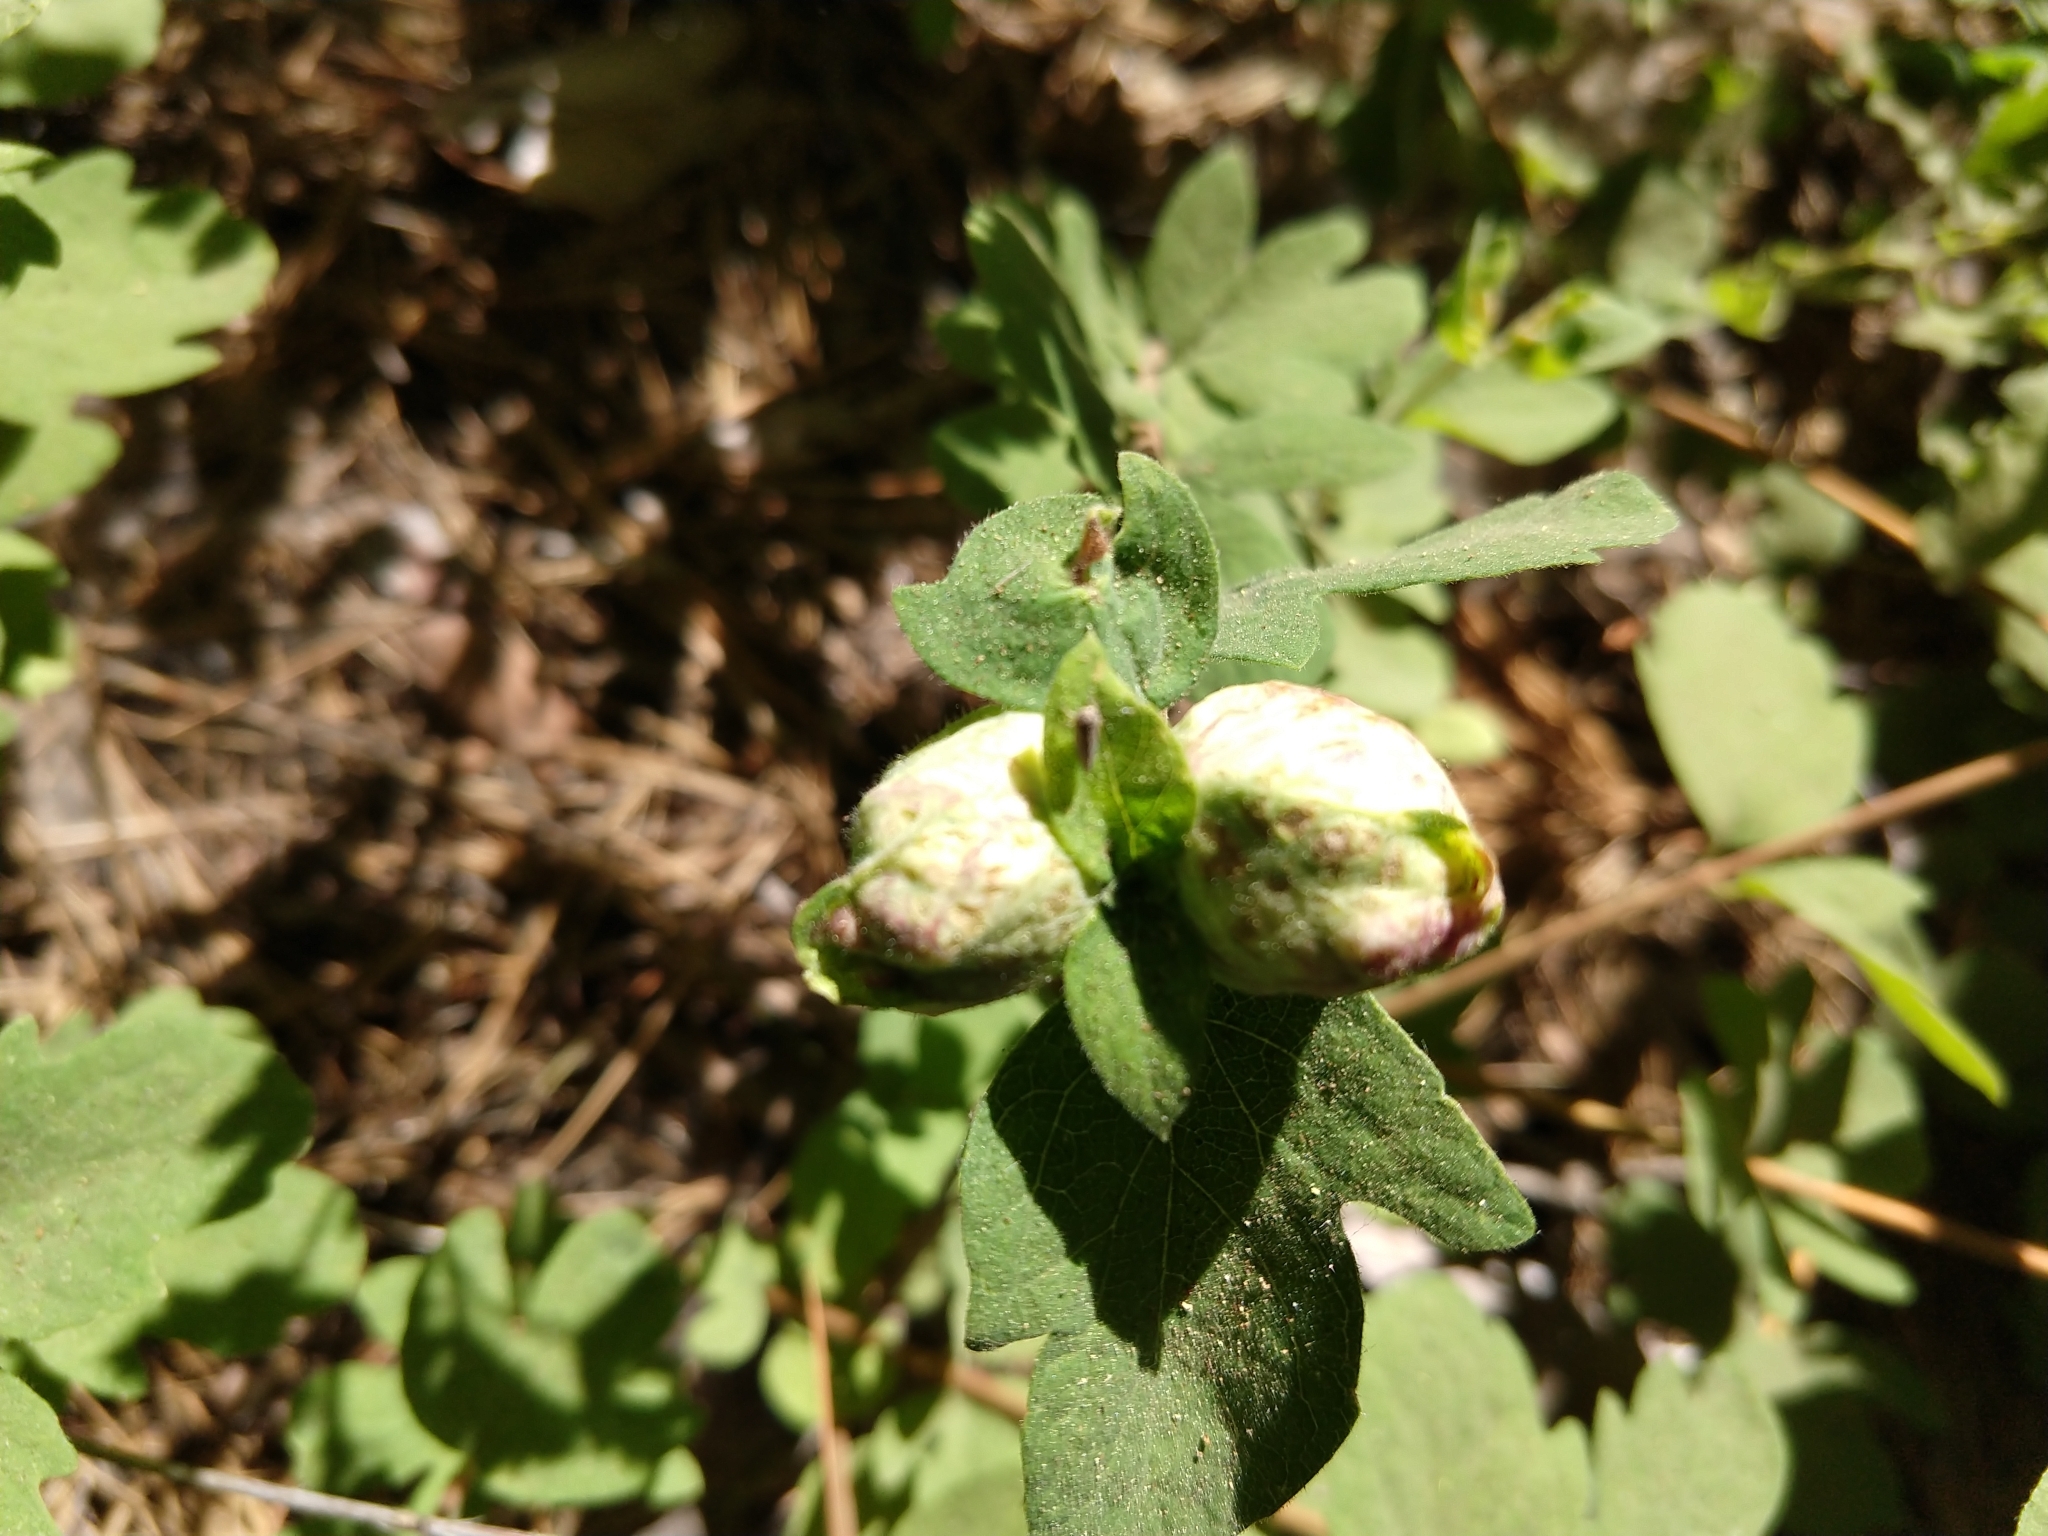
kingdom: Animalia
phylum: Arthropoda
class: Insecta
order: Hymenoptera
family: Tenthredinidae
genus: Blennogeneris
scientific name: Blennogeneris spissipes
